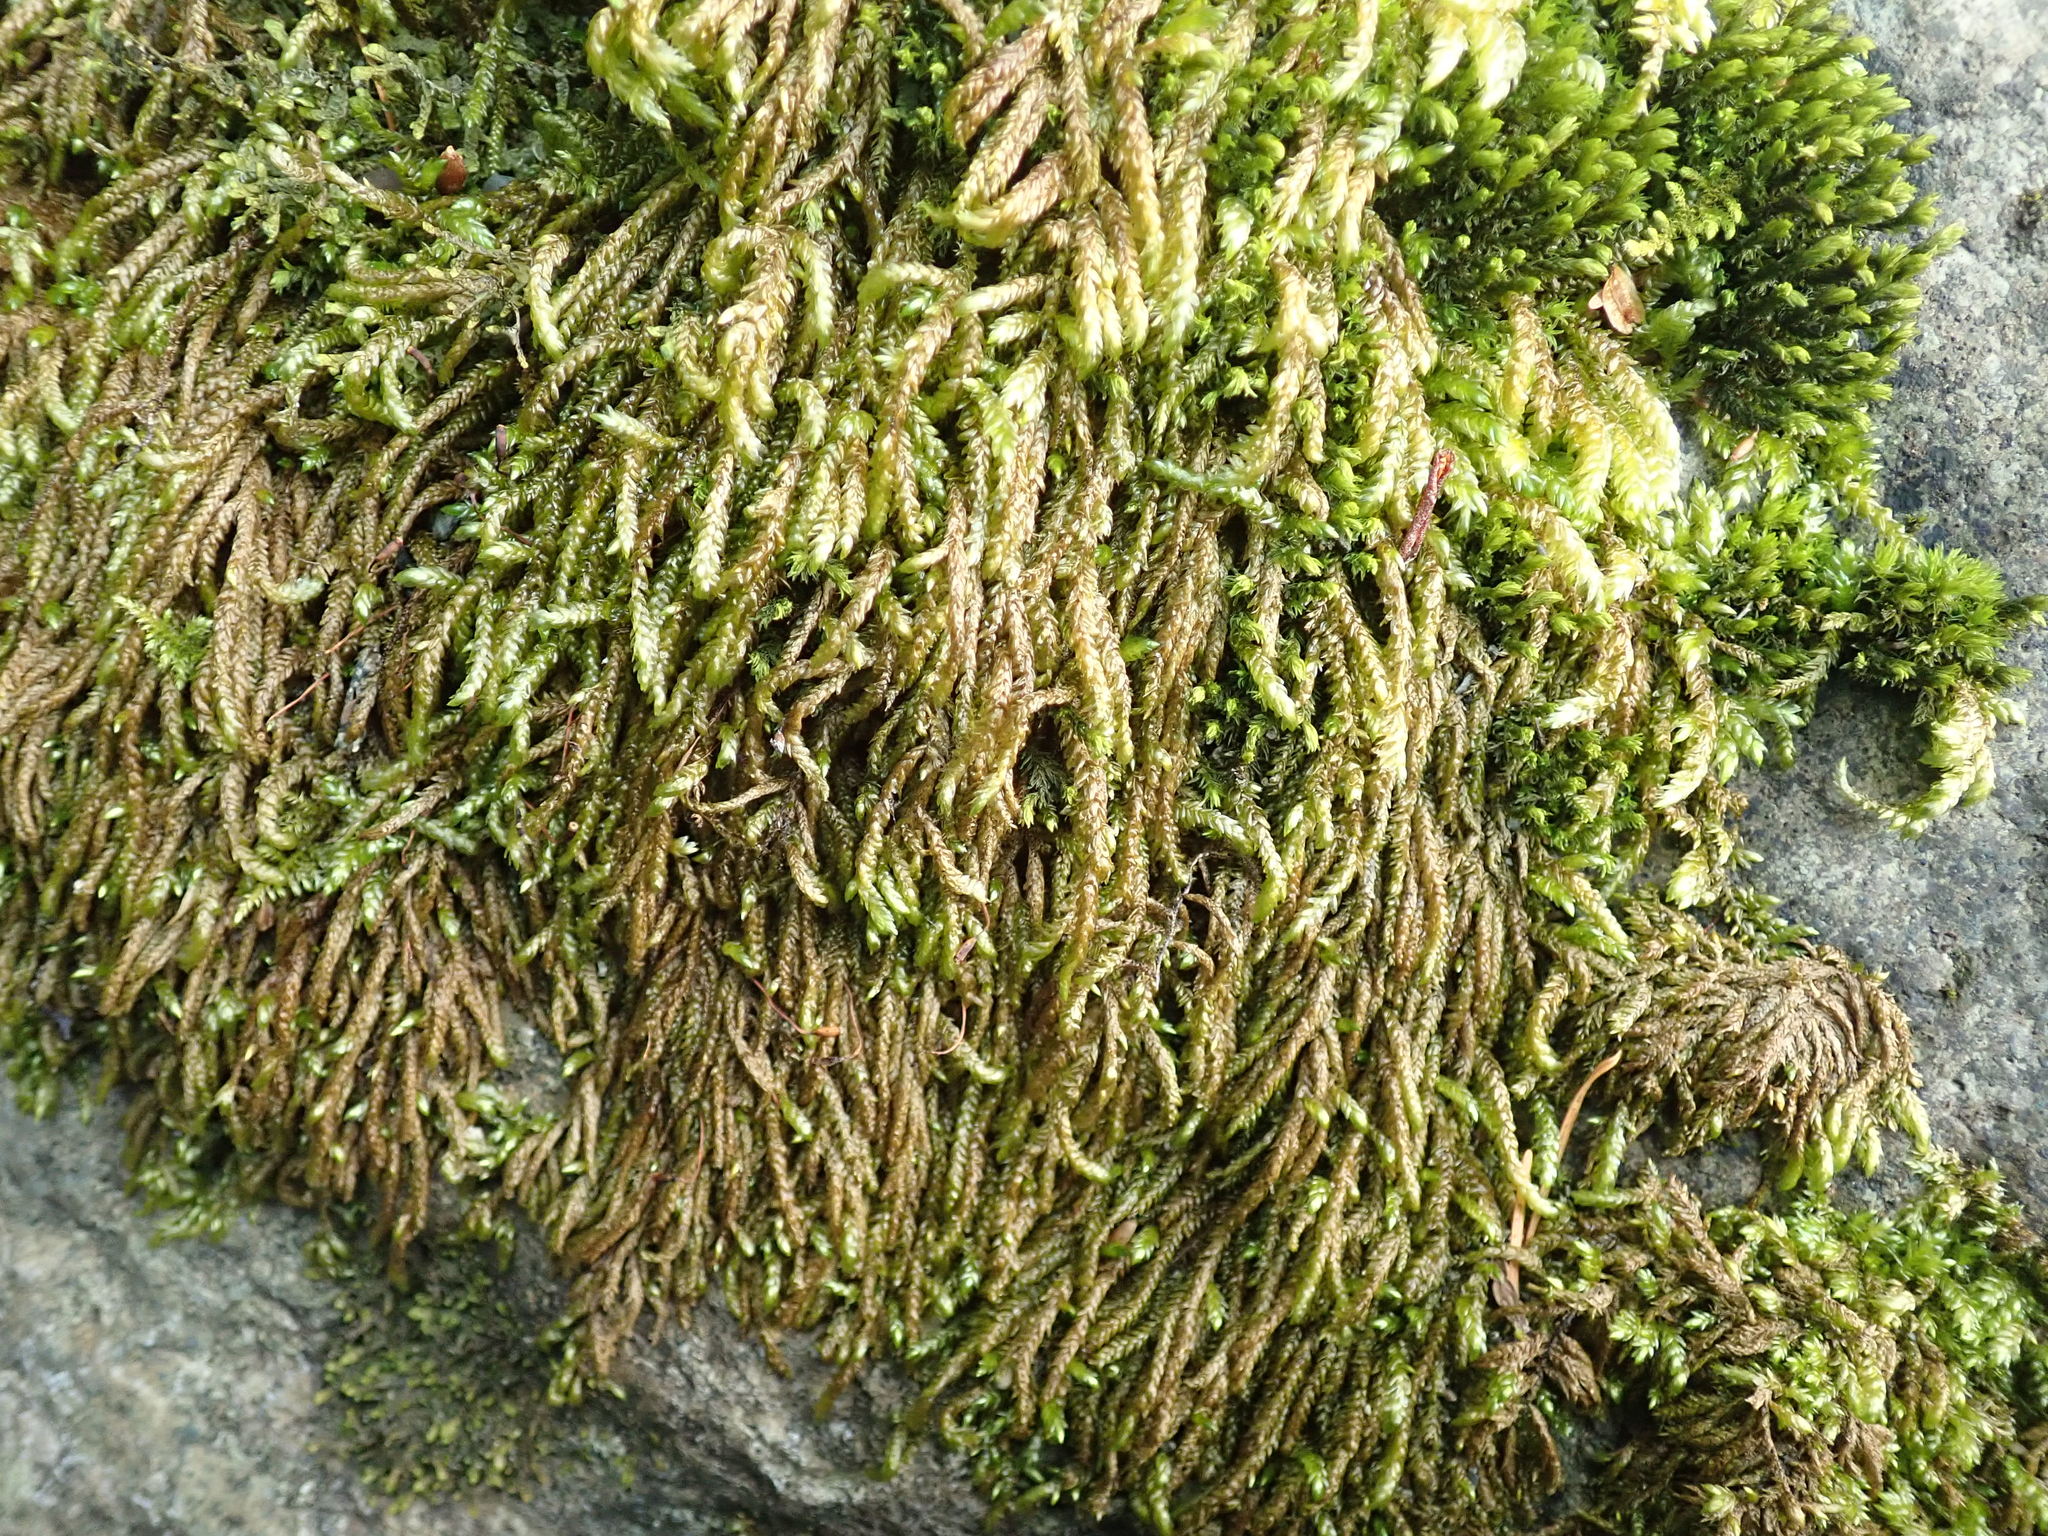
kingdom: Plantae
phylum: Bryophyta
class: Bryopsida
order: Hypnales
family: Brachytheciaceae
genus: Scleropodium
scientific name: Scleropodium obtusifolium
